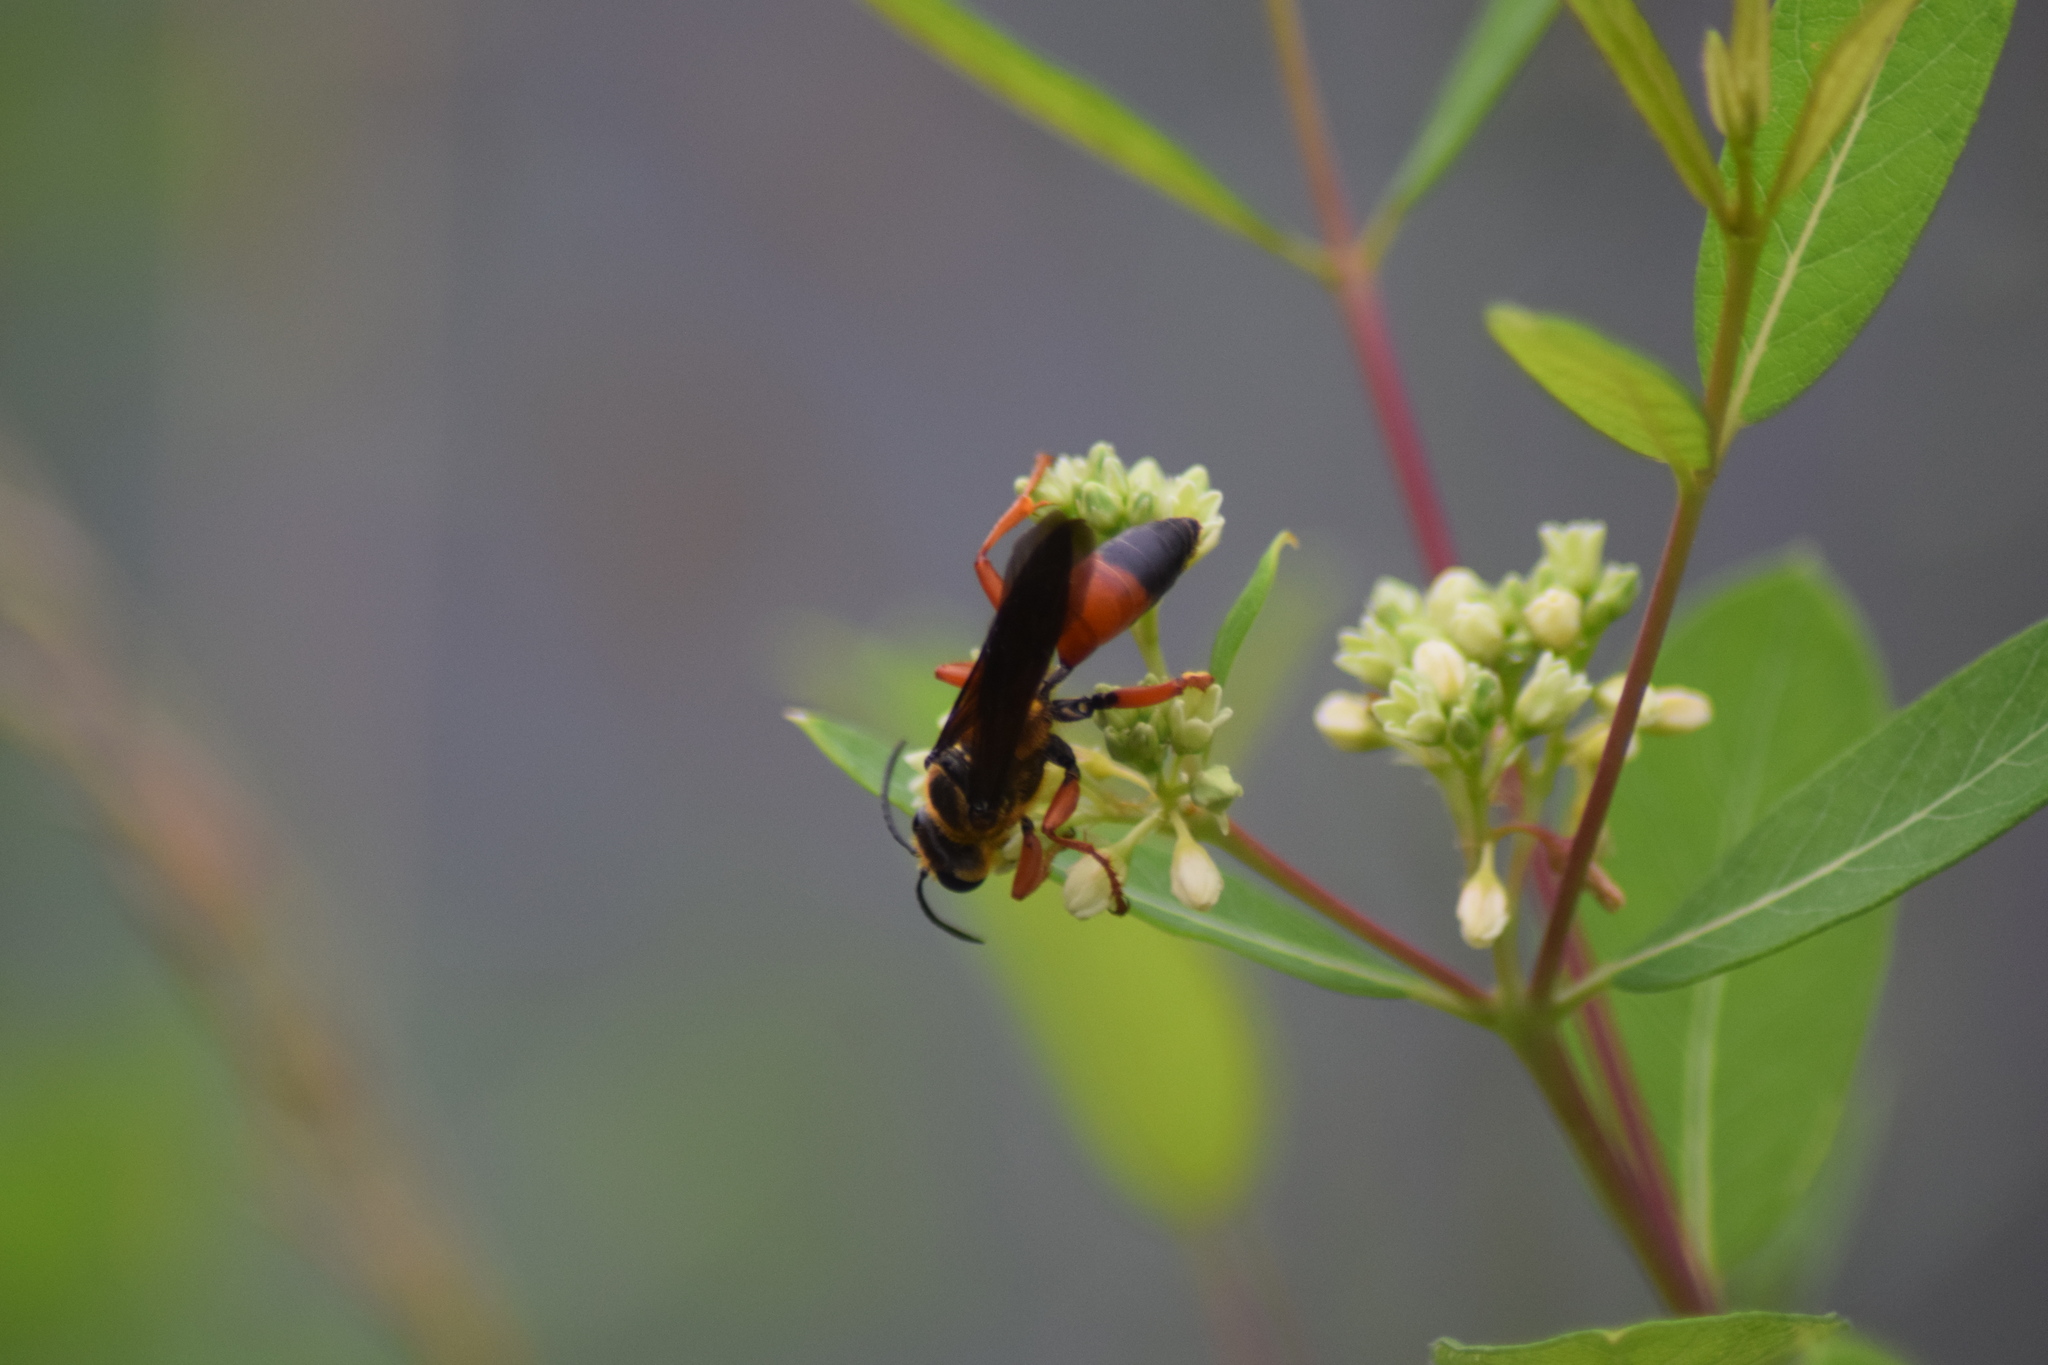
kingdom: Animalia
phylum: Arthropoda
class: Insecta
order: Hymenoptera
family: Sphecidae
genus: Sphex
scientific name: Sphex ichneumoneus
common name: Great golden digger wasp
